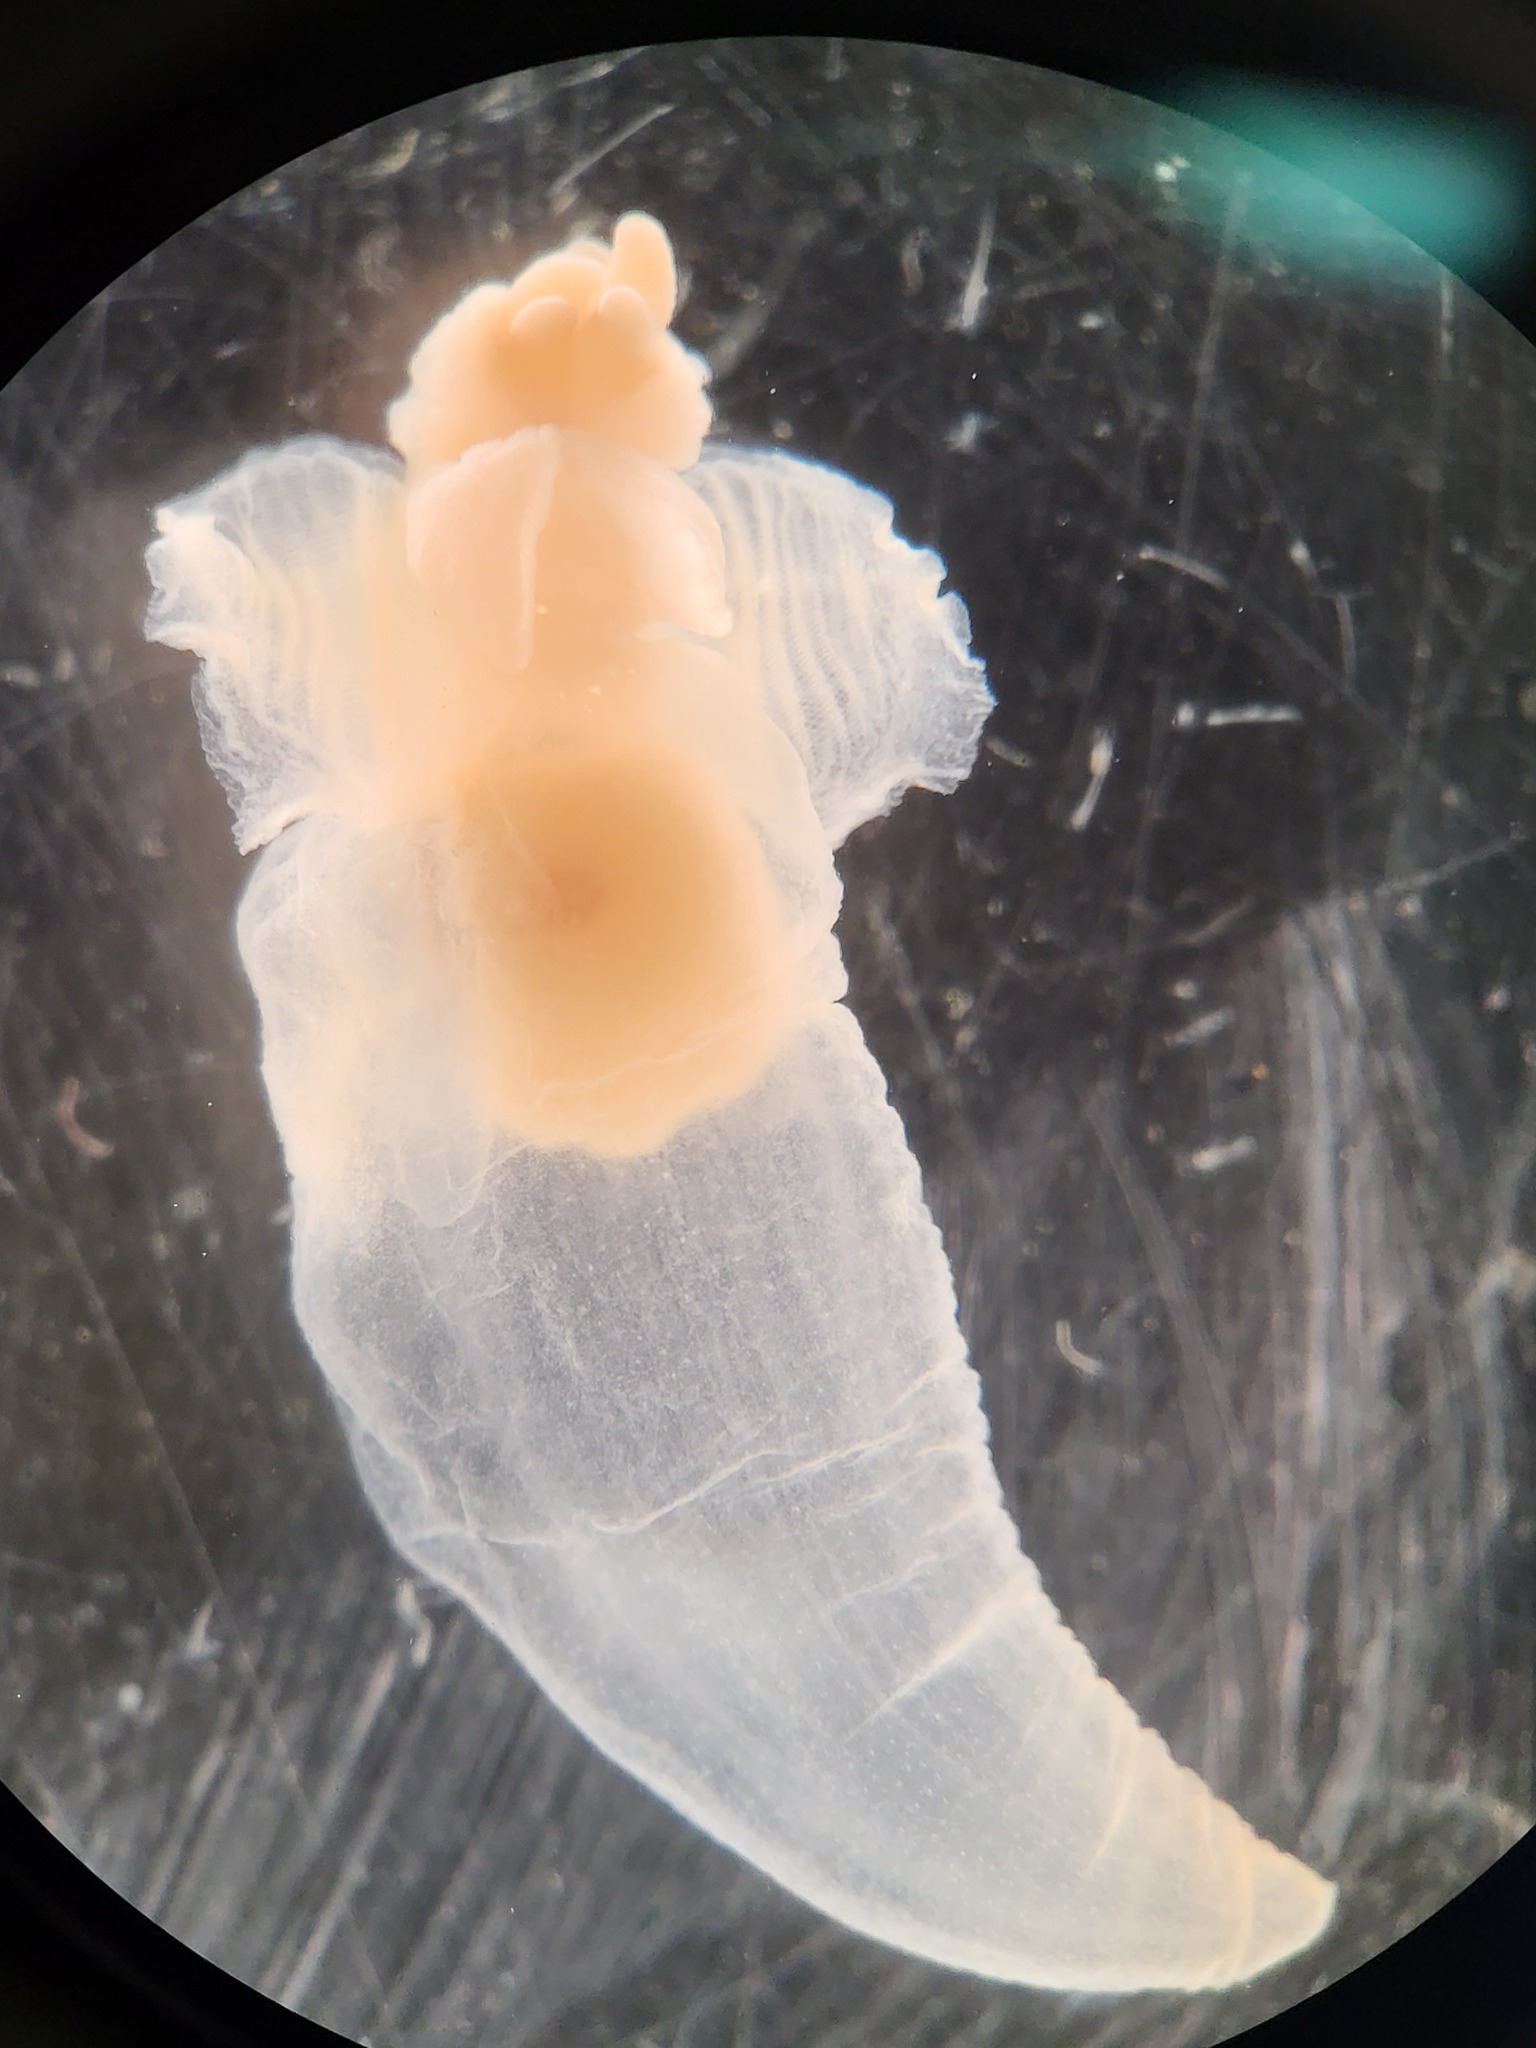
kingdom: Animalia
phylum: Mollusca
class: Gastropoda
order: Pteropoda
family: Clionidae
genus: Clione
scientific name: Clione limacina
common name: Common clione
